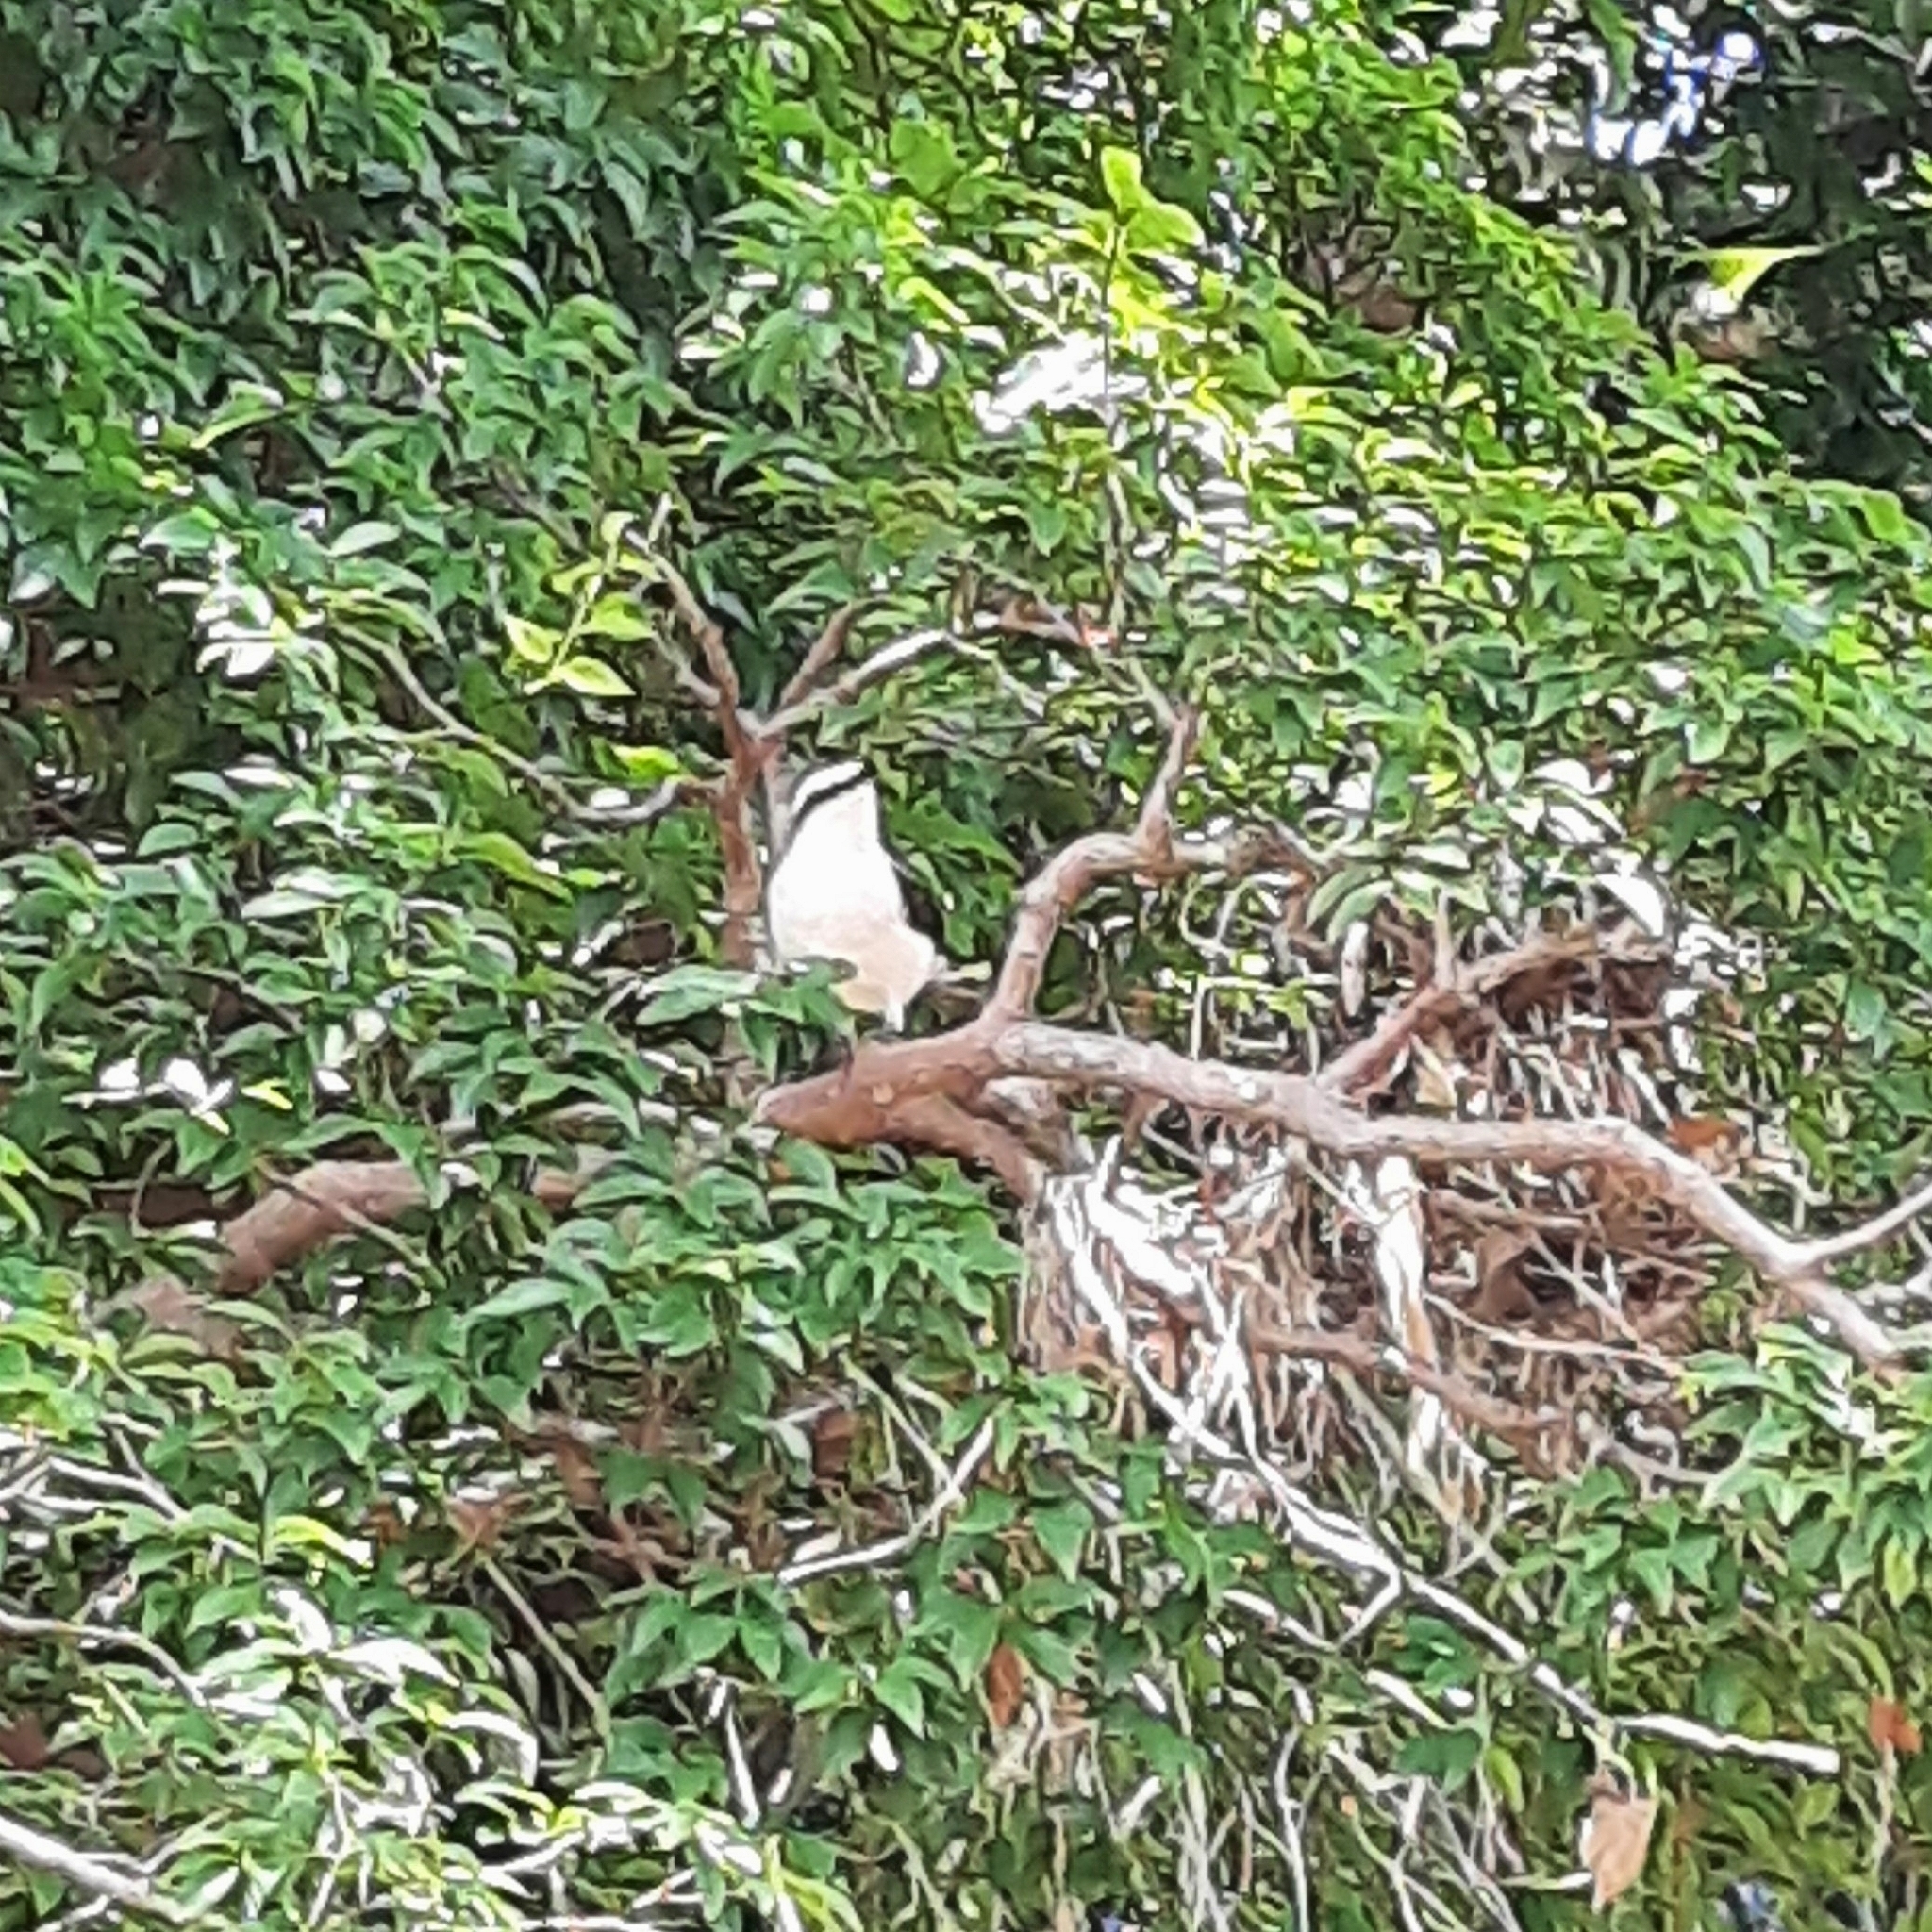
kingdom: Animalia
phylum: Chordata
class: Aves
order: Passeriformes
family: Tyrannidae
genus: Fluvicola
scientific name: Fluvicola nengeta
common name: Masked water tyrant
